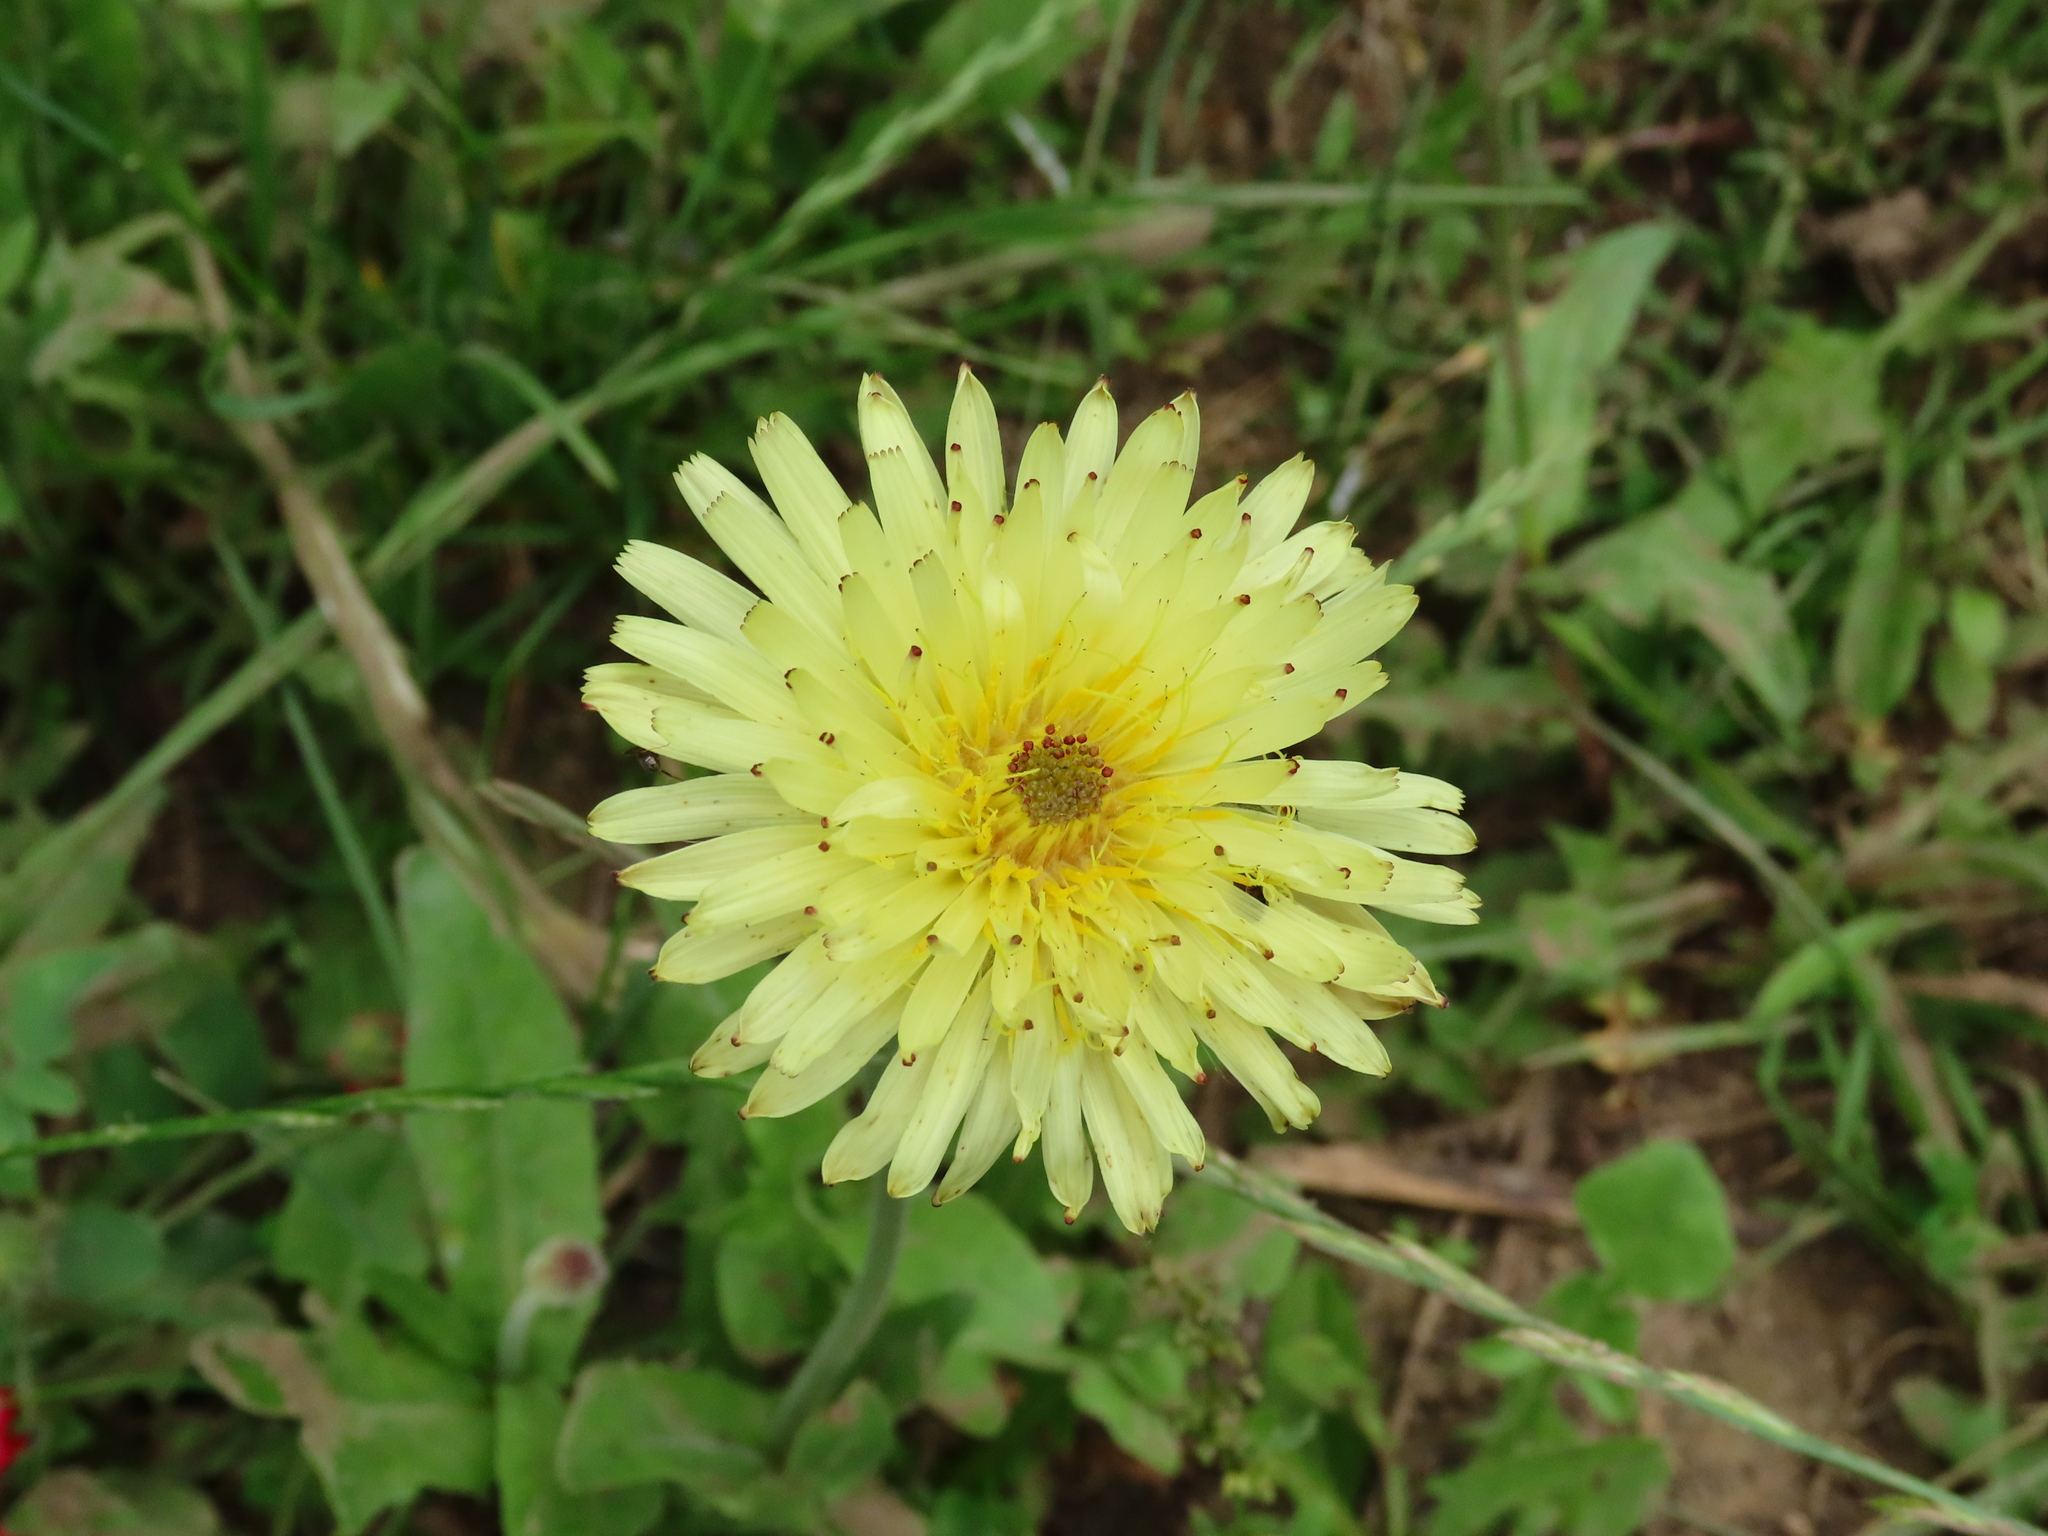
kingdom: Plantae
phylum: Tracheophyta
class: Magnoliopsida
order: Asterales
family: Asteraceae
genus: Urospermum
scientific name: Urospermum dalechampii
